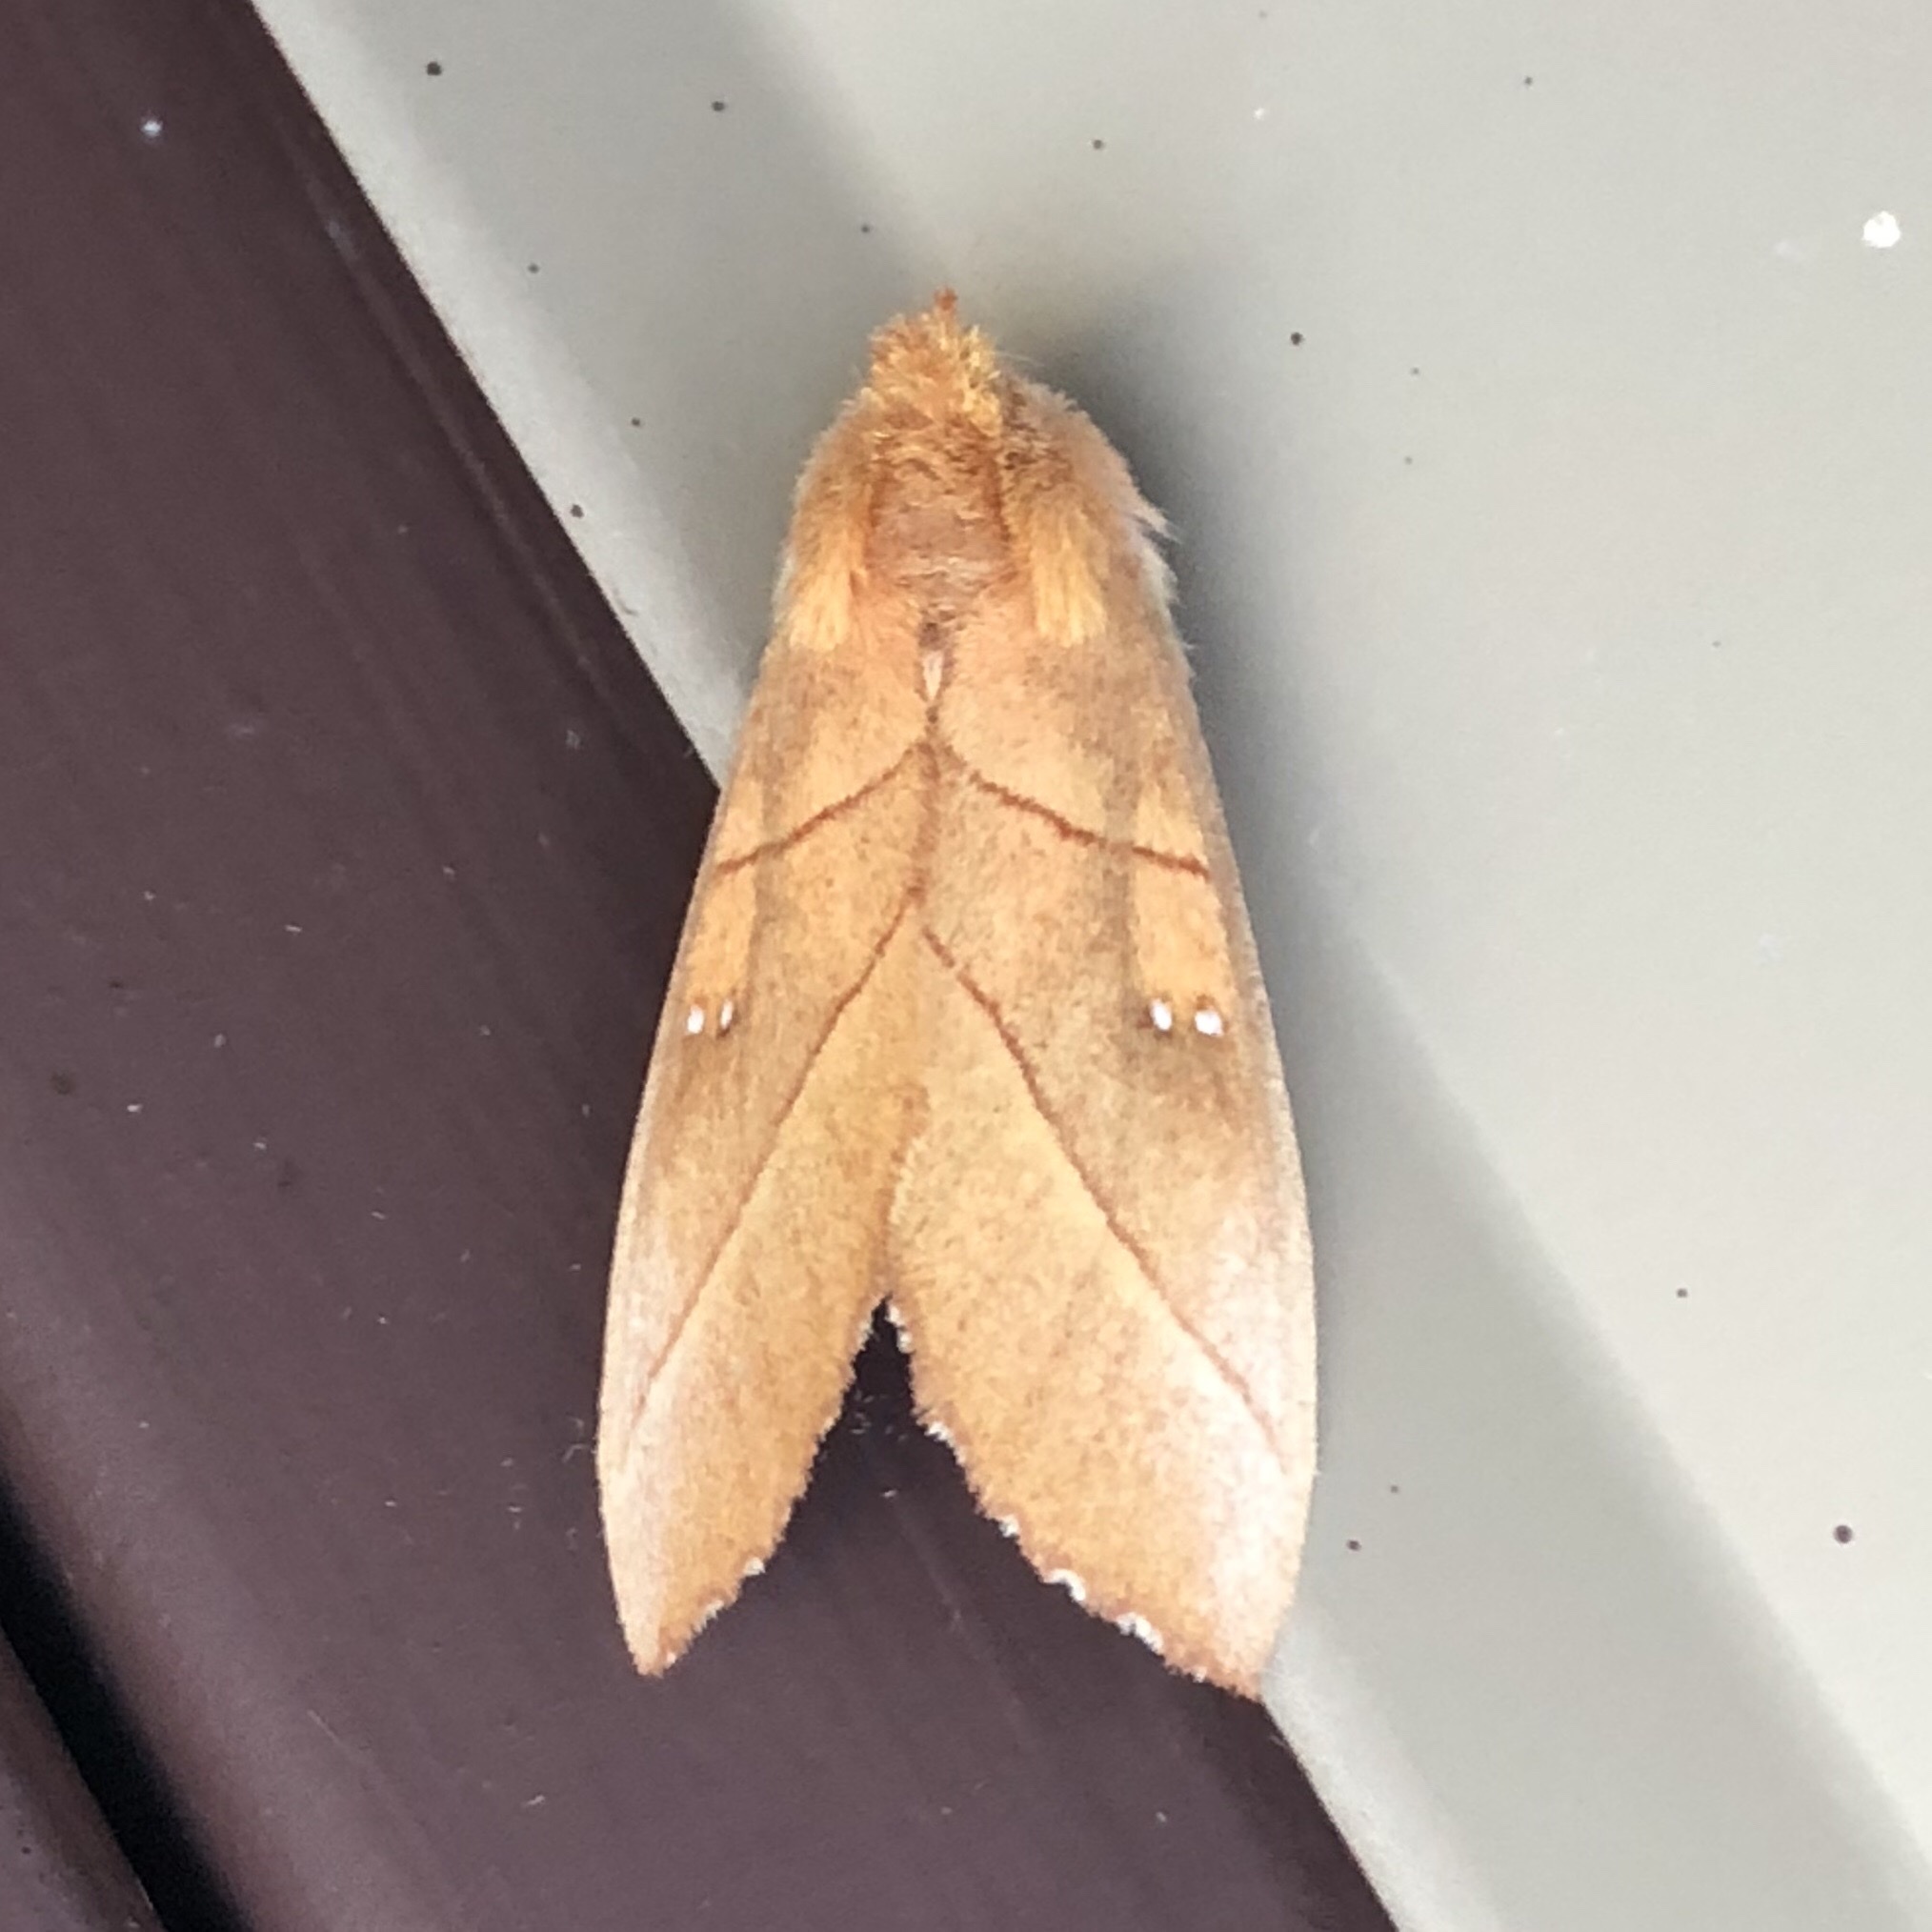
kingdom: Animalia
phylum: Arthropoda
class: Insecta
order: Lepidoptera
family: Notodontidae
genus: Nadata
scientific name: Nadata gibbosa
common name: White-dotted prominent
